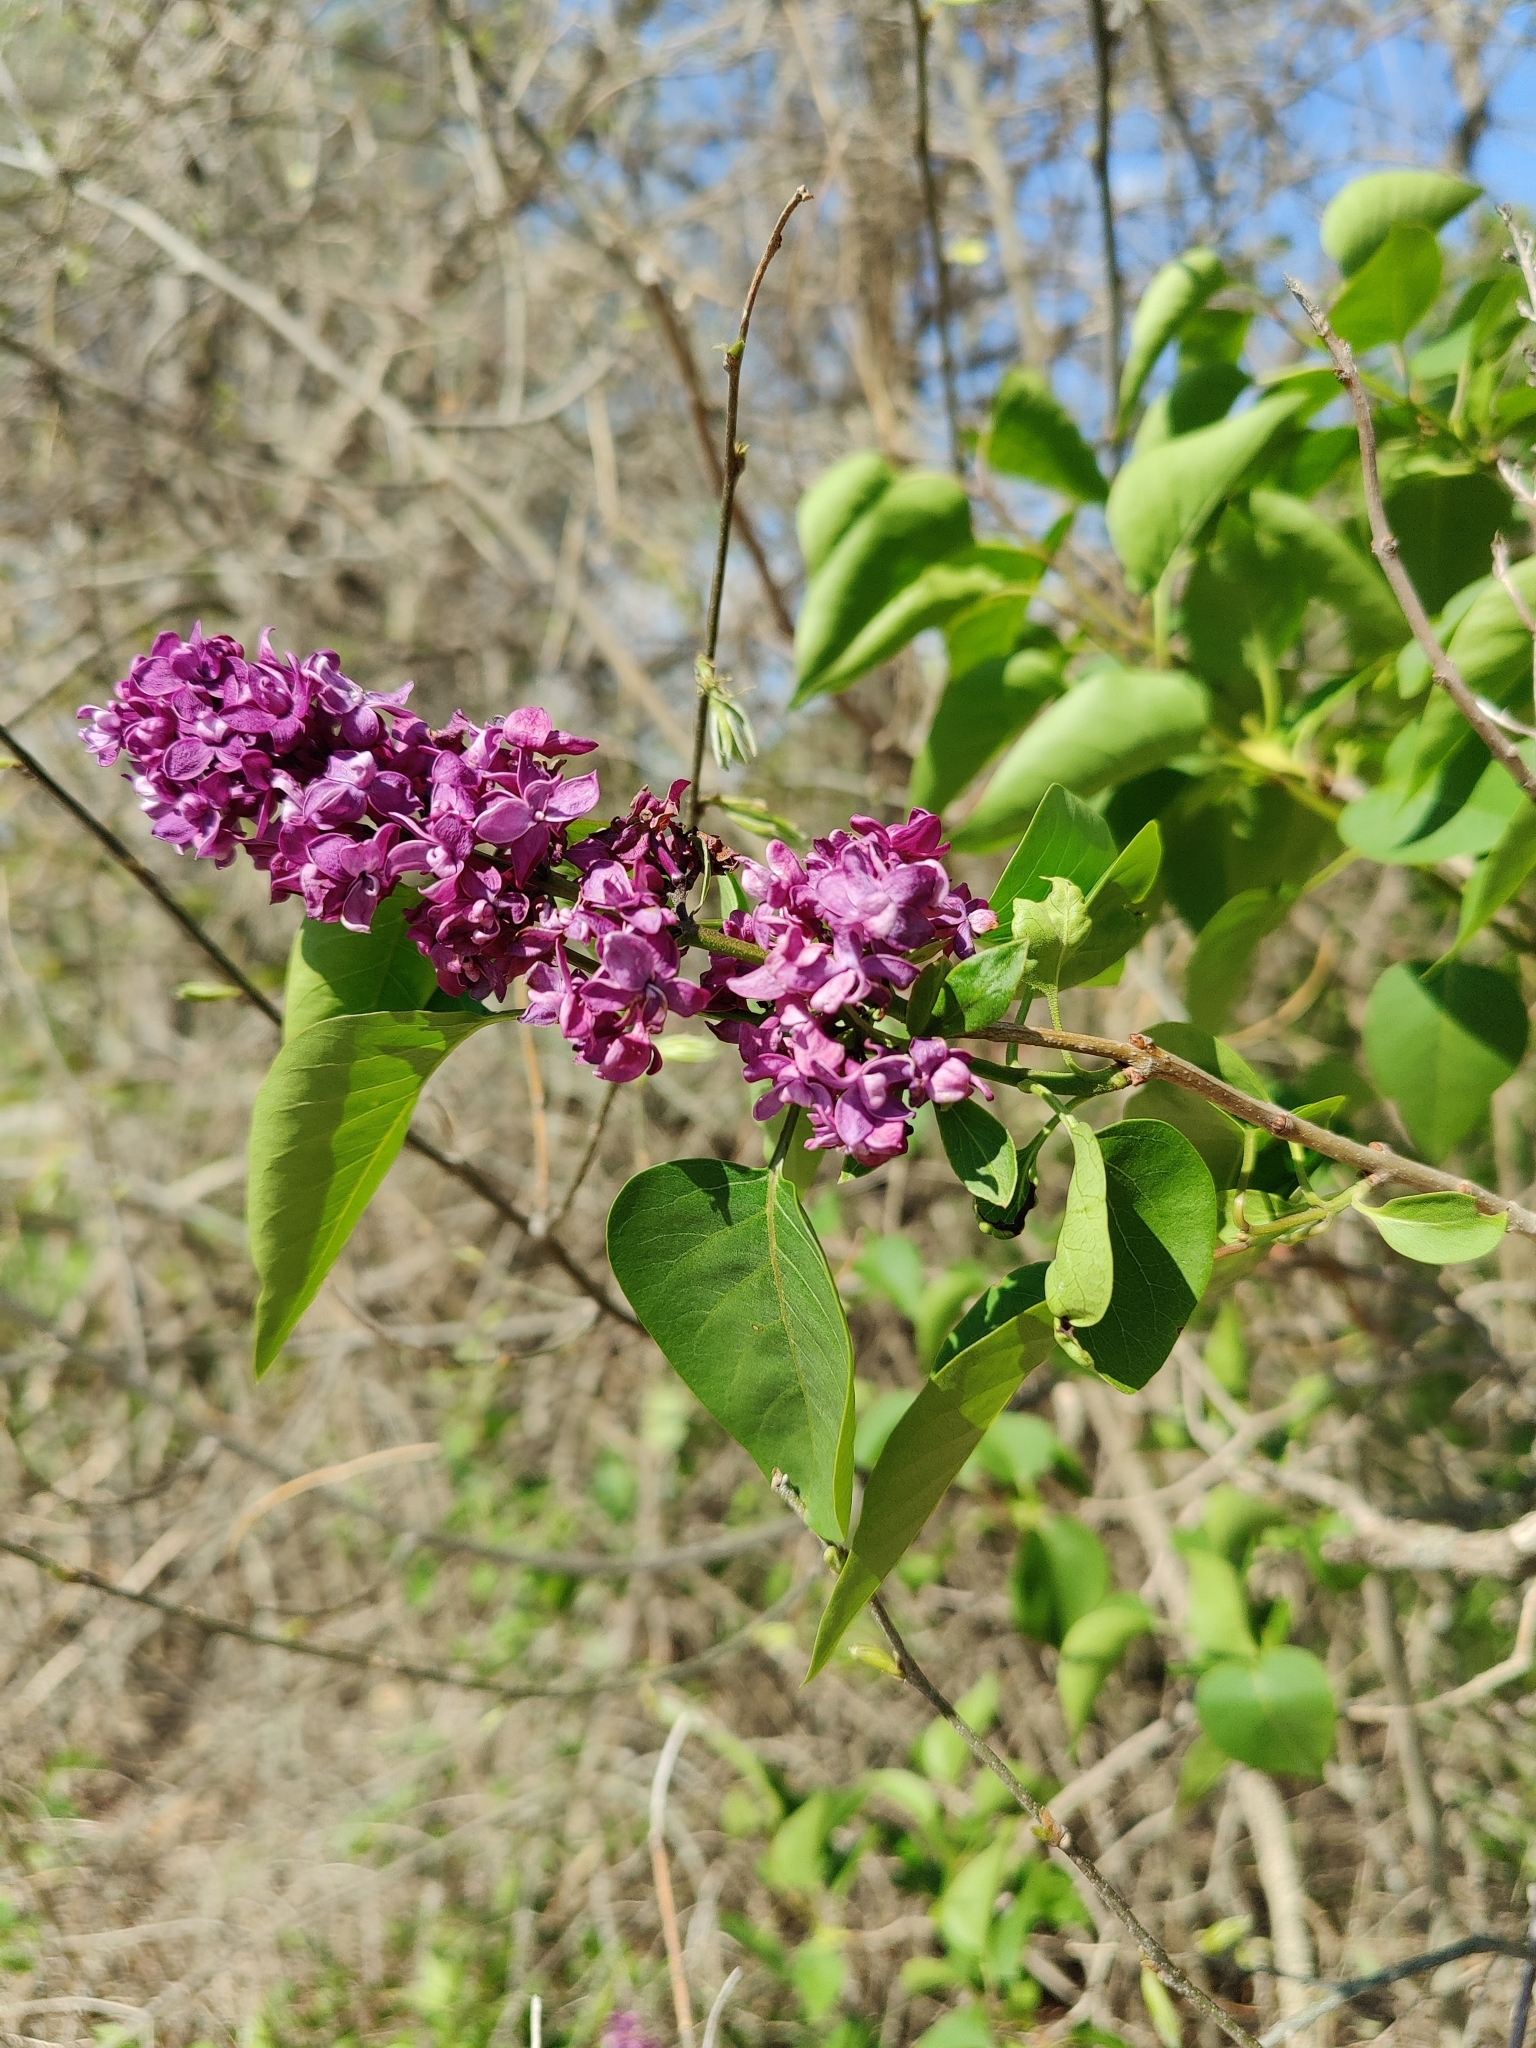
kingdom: Plantae
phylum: Tracheophyta
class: Magnoliopsida
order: Lamiales
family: Oleaceae
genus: Syringa
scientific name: Syringa vulgaris
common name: Common lilac
